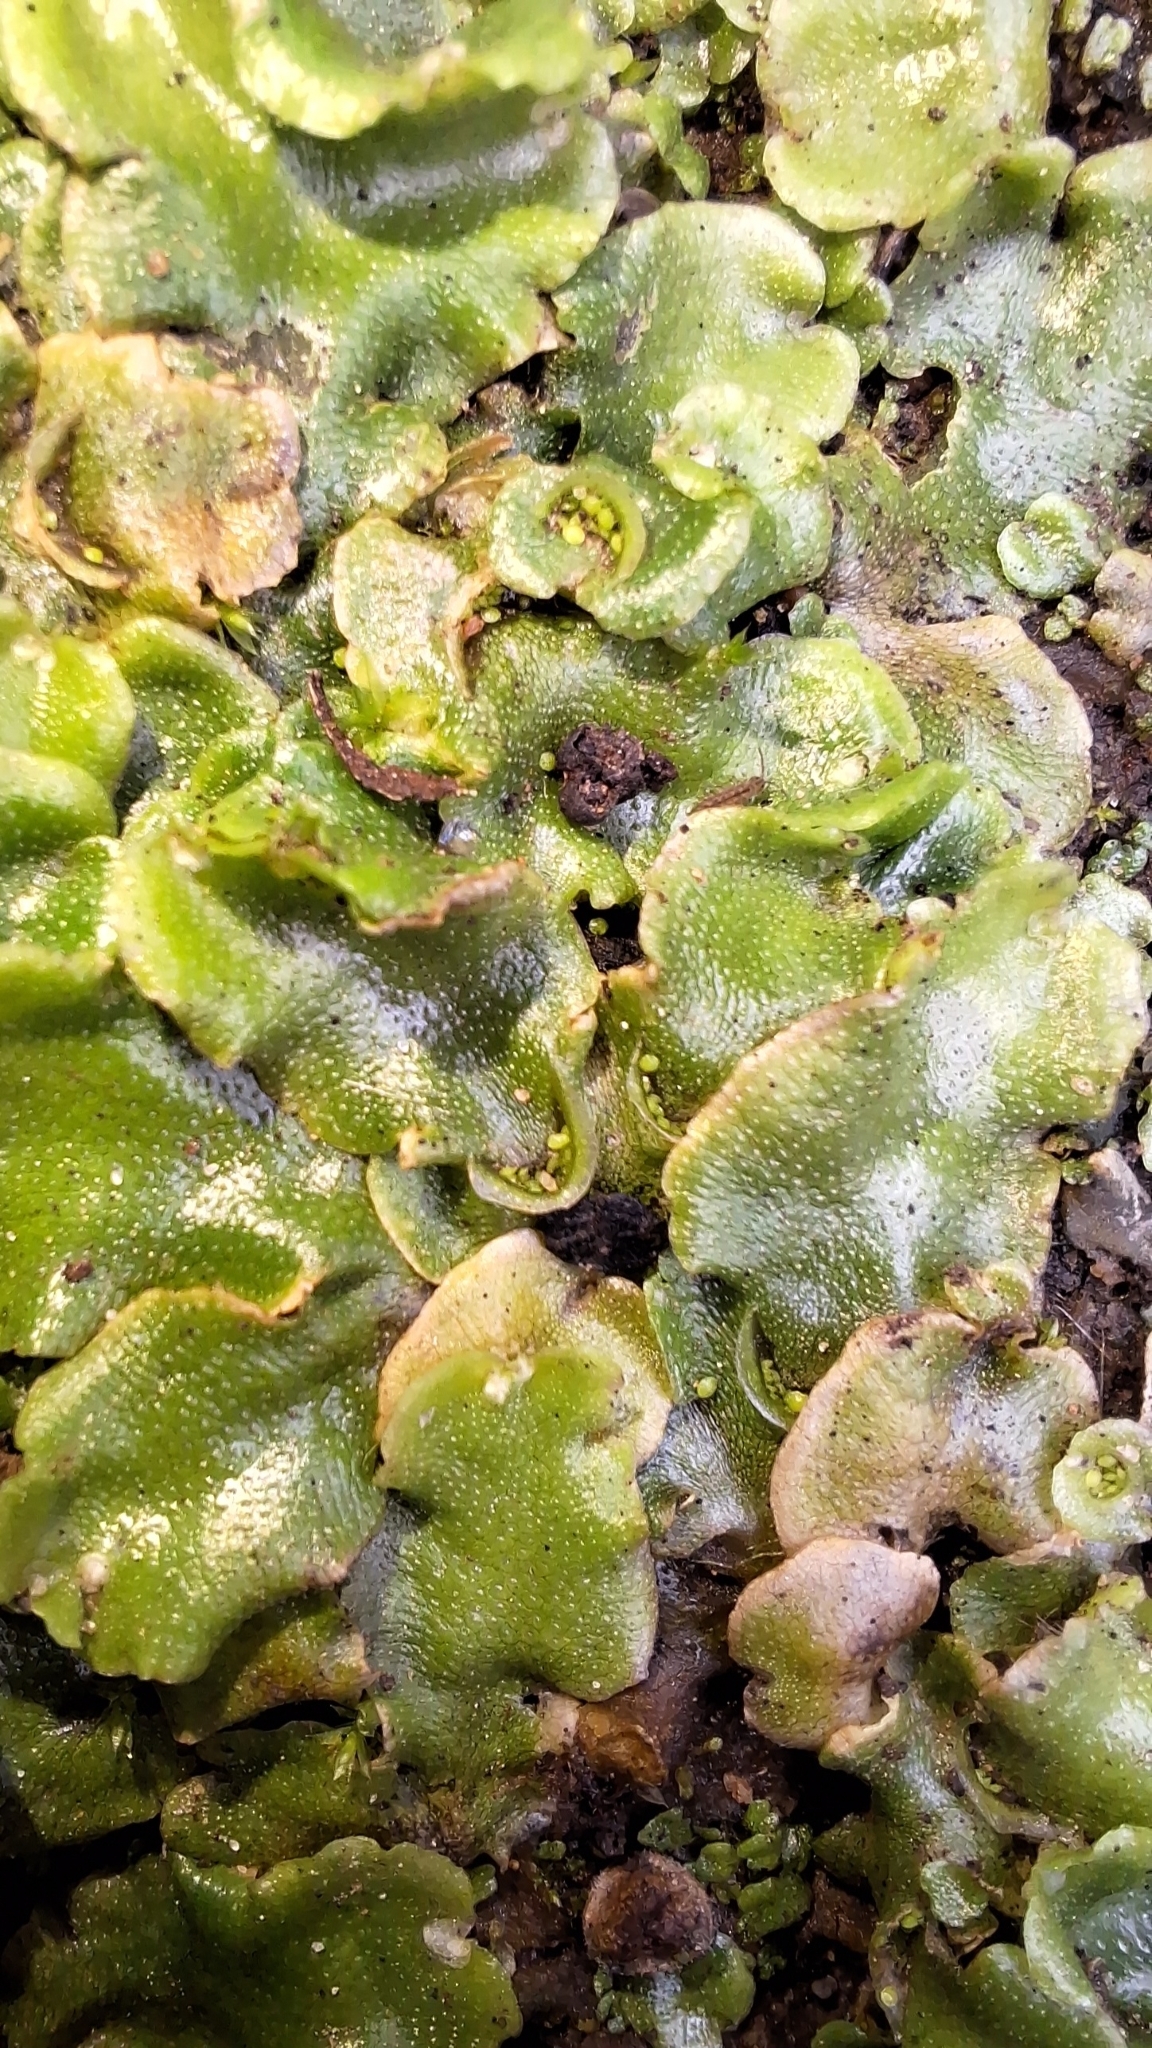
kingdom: Plantae
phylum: Marchantiophyta
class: Marchantiopsida
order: Lunulariales
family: Lunulariaceae
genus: Lunularia
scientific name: Lunularia cruciata
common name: Crescent-cup liverwort
